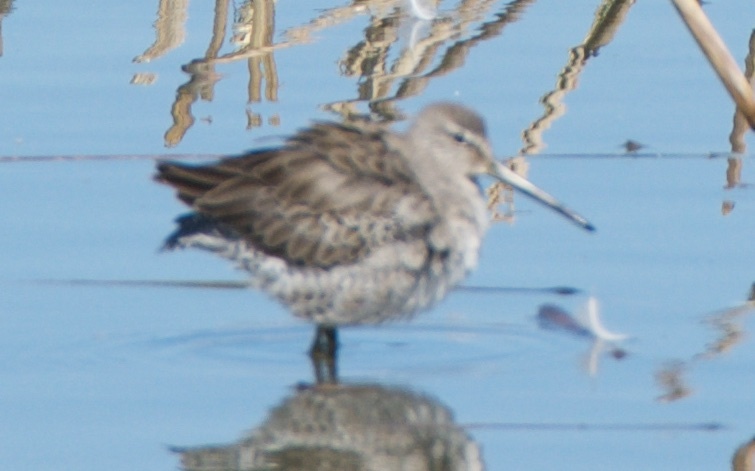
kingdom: Animalia
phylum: Chordata
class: Aves
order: Charadriiformes
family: Scolopacidae
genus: Limnodromus
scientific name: Limnodromus scolopaceus
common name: Long-billed dowitcher
